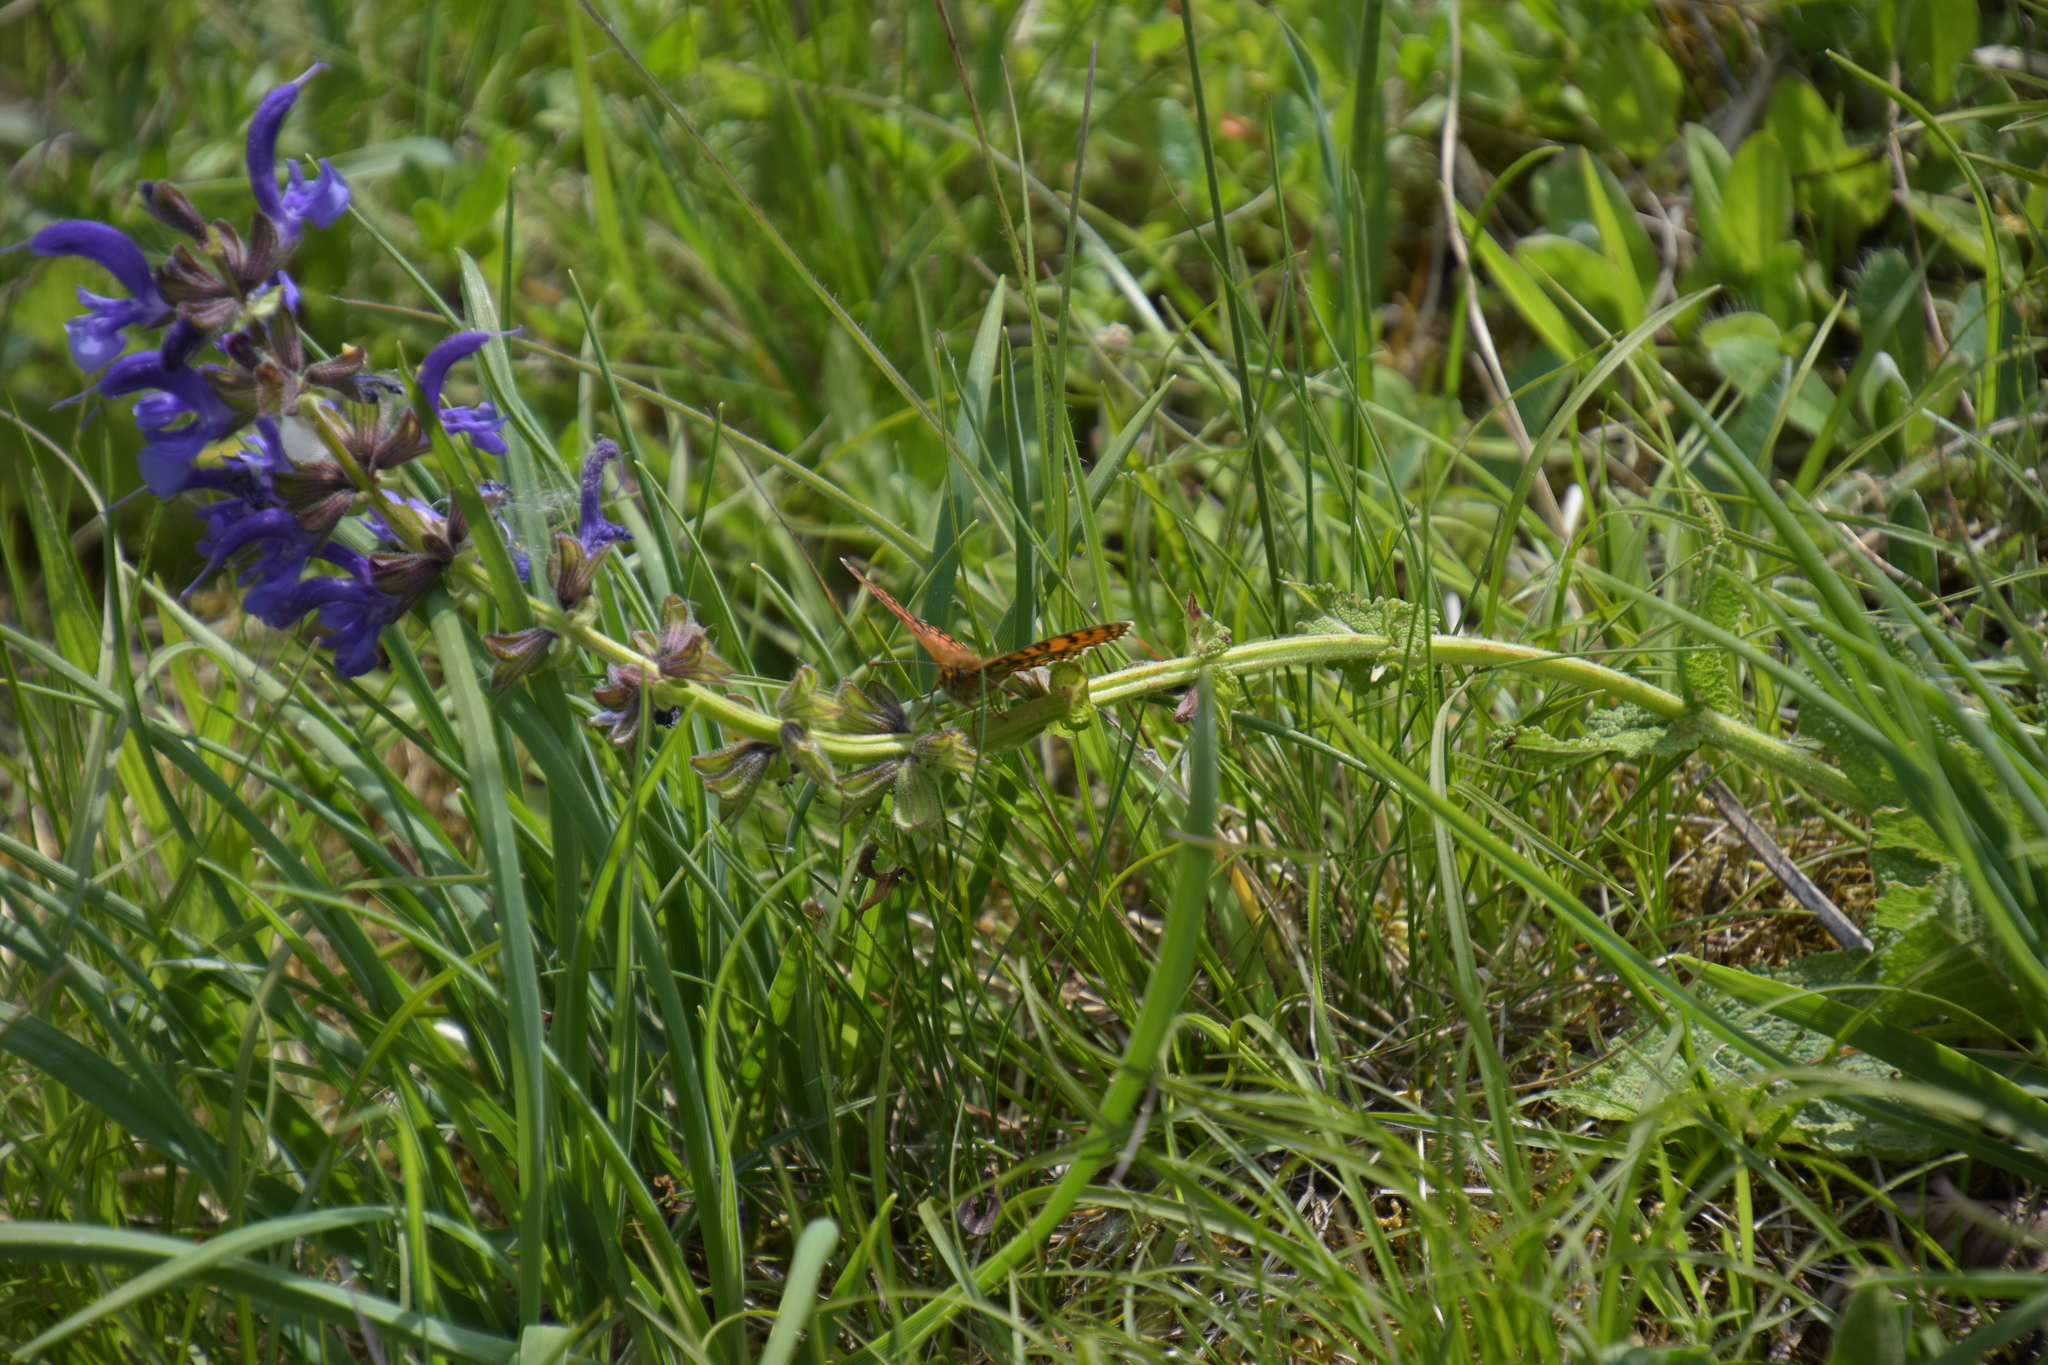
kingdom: Plantae
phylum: Tracheophyta
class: Magnoliopsida
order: Lamiales
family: Lamiaceae
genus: Salvia
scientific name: Salvia pratensis
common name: Meadow sage
